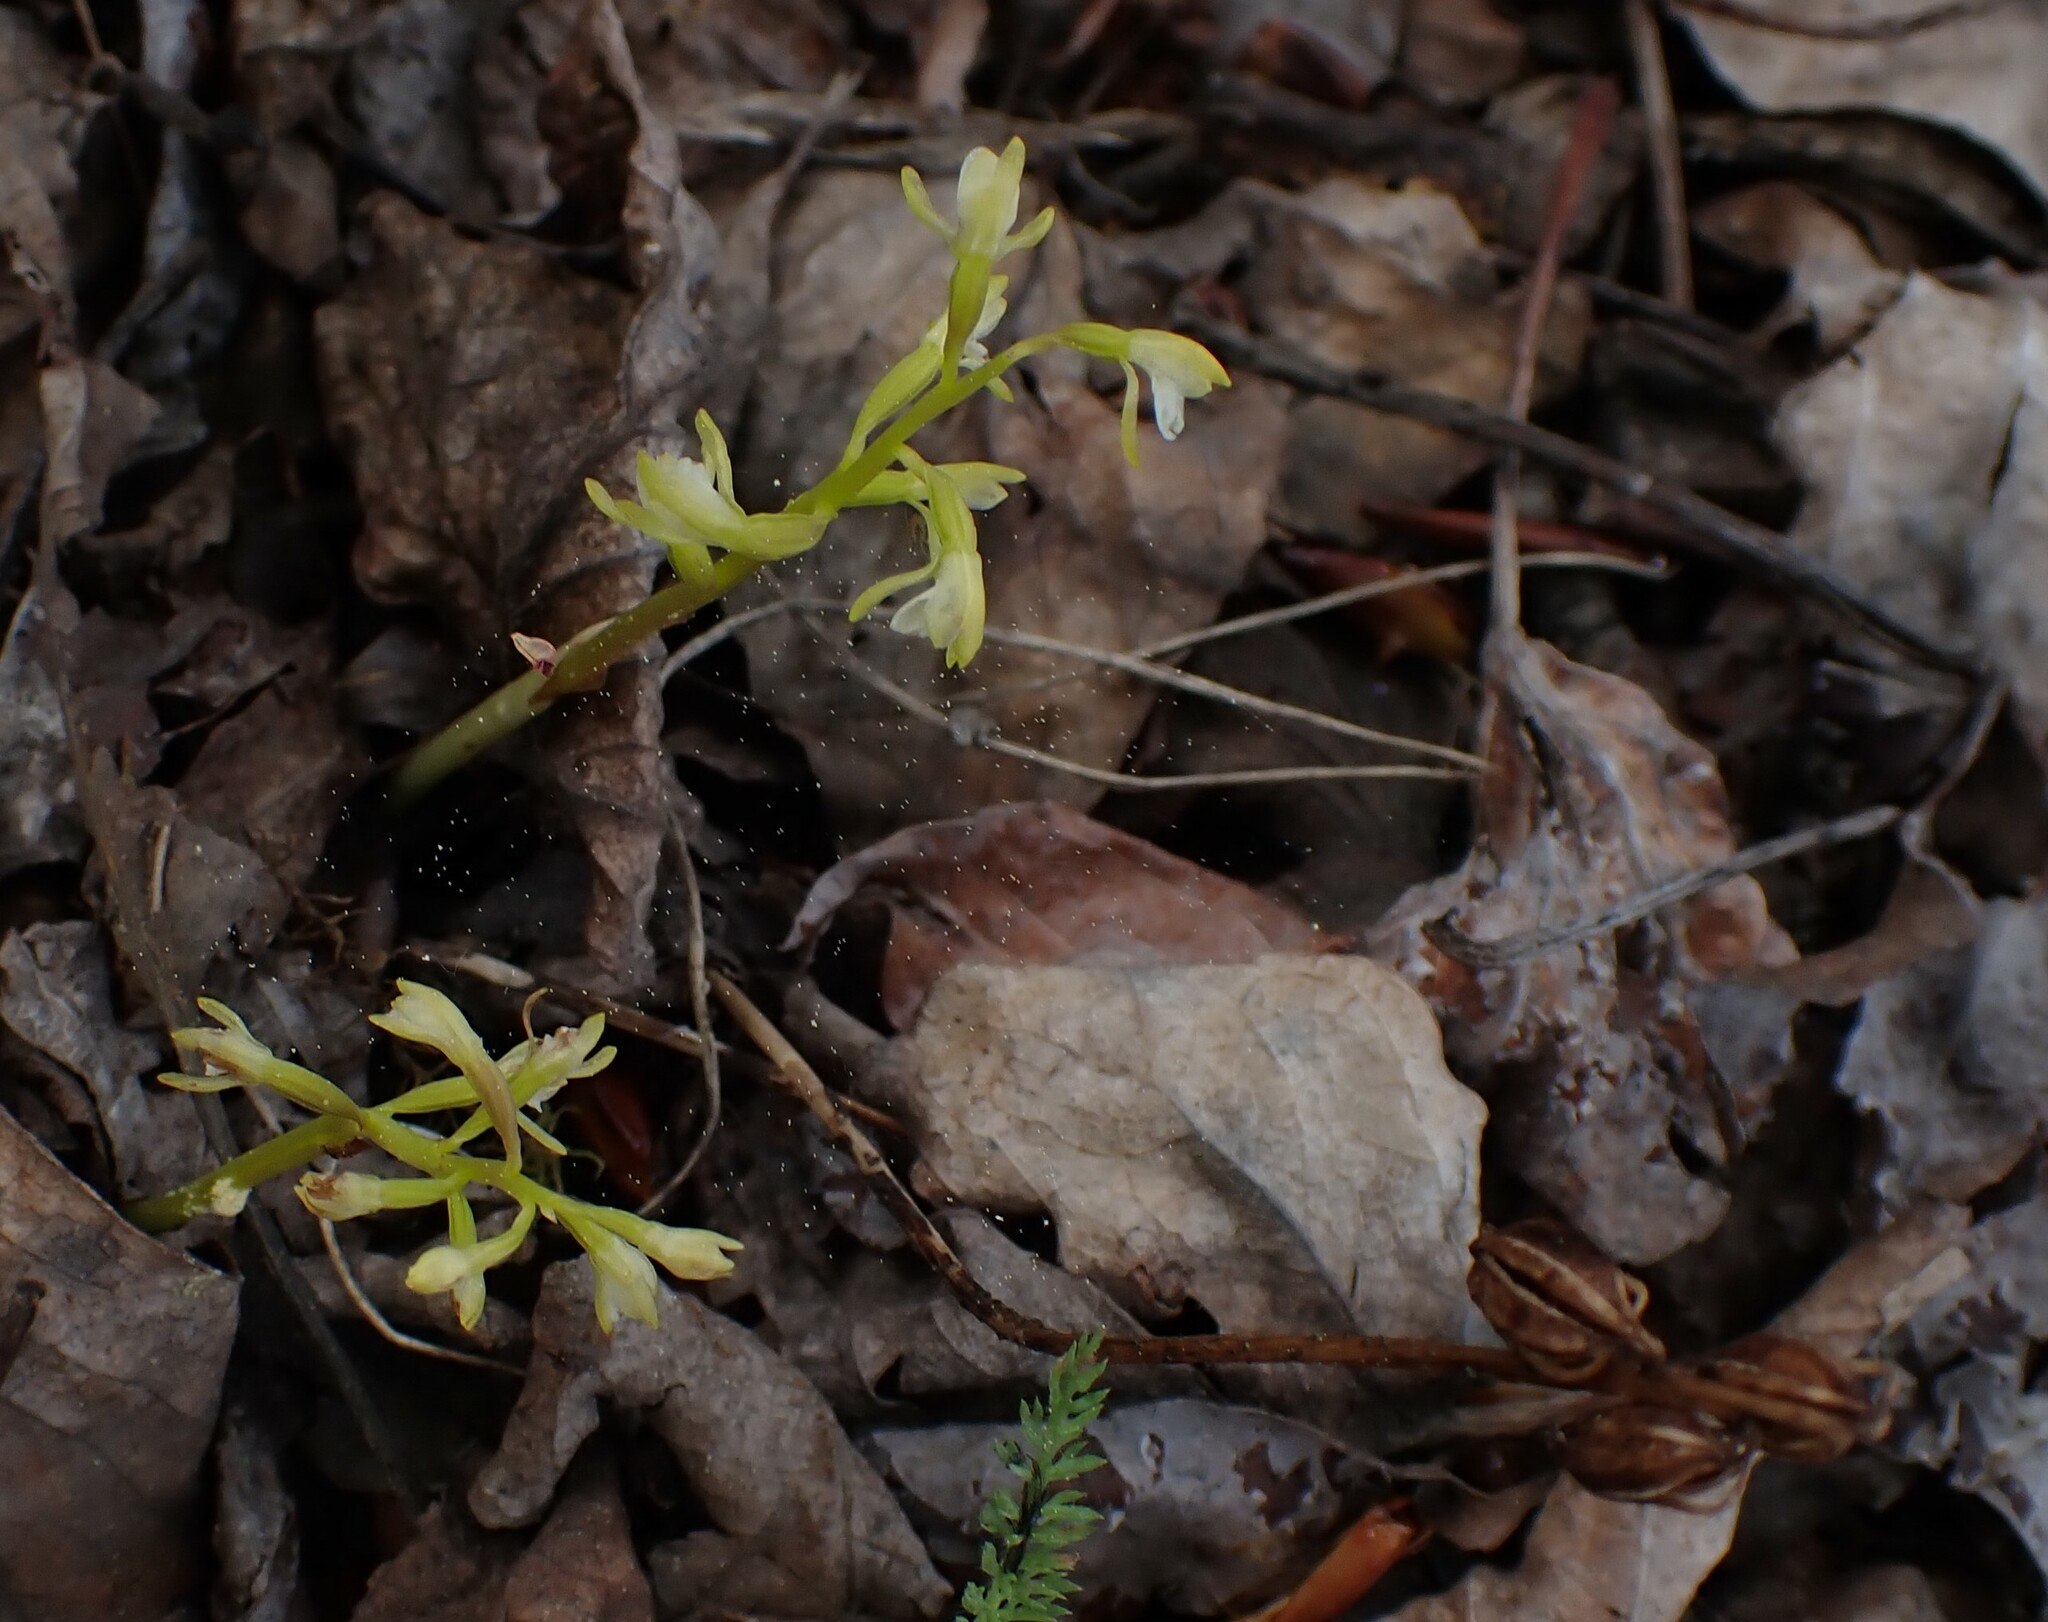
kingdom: Plantae
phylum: Tracheophyta
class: Liliopsida
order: Asparagales
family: Orchidaceae
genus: Corallorhiza
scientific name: Corallorhiza trifida
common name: Yellow coralroot
